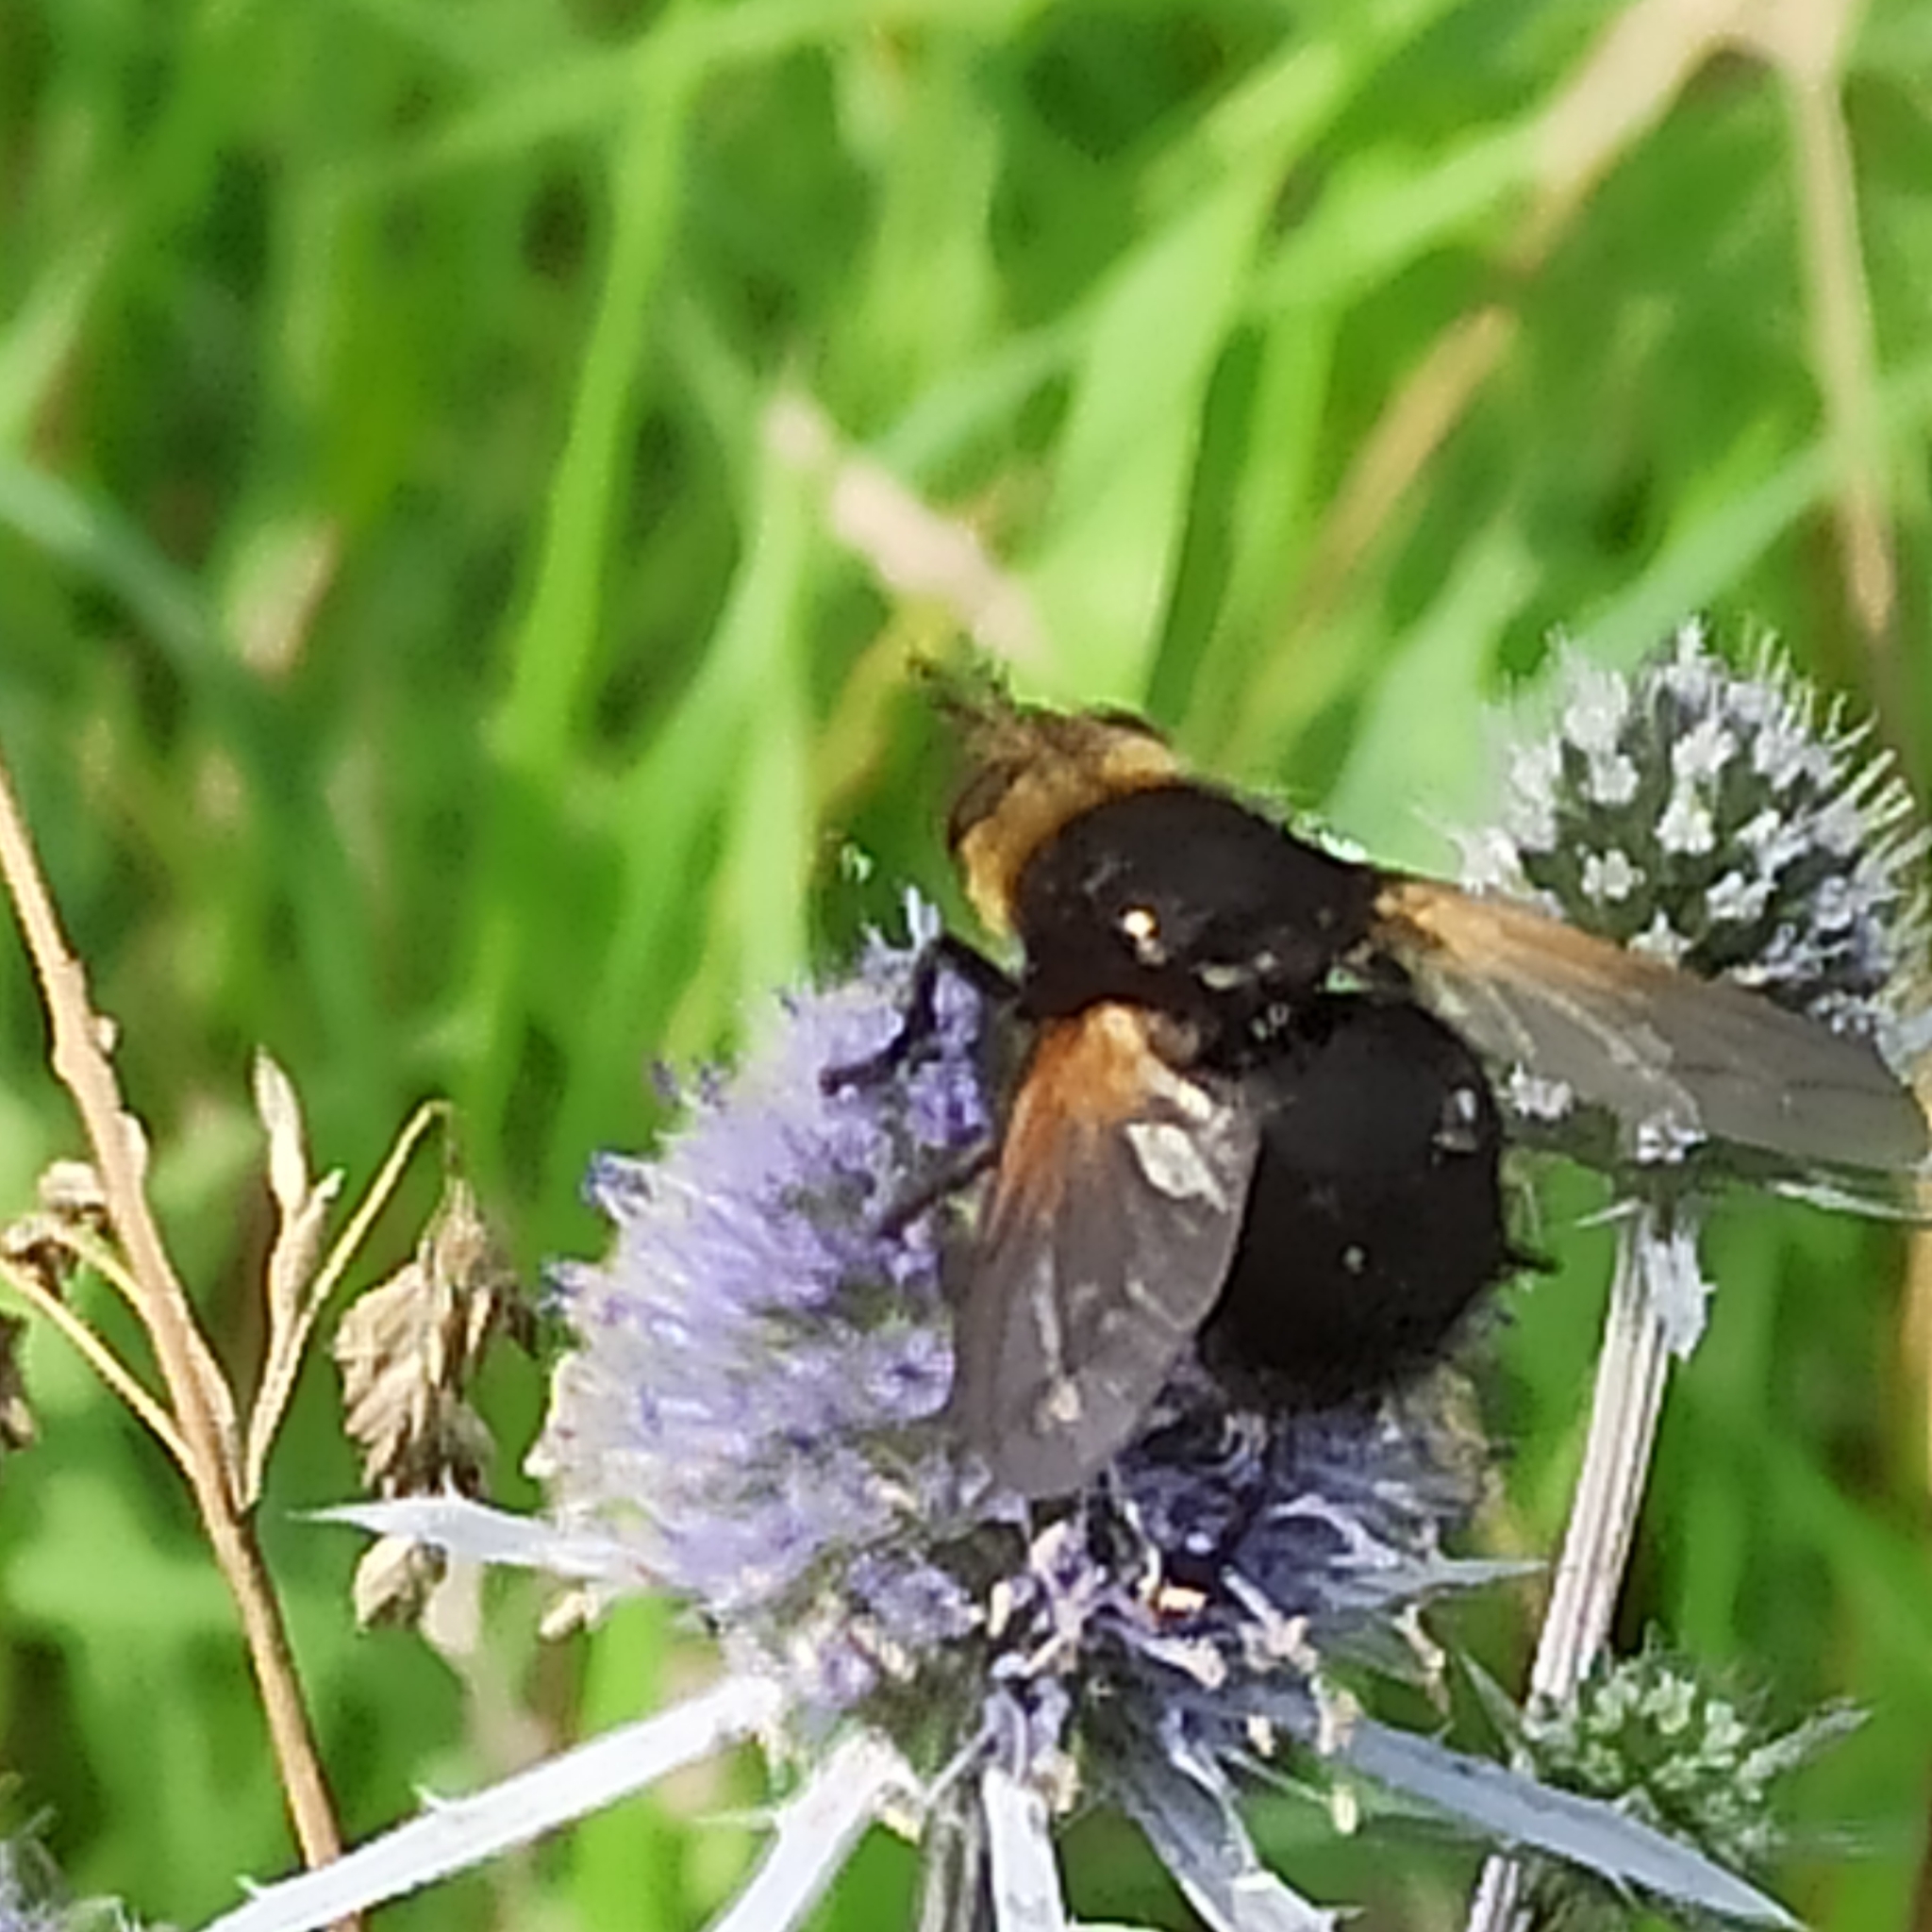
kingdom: Animalia
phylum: Arthropoda
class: Insecta
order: Diptera
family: Tachinidae
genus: Tachina
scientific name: Tachina grossa
